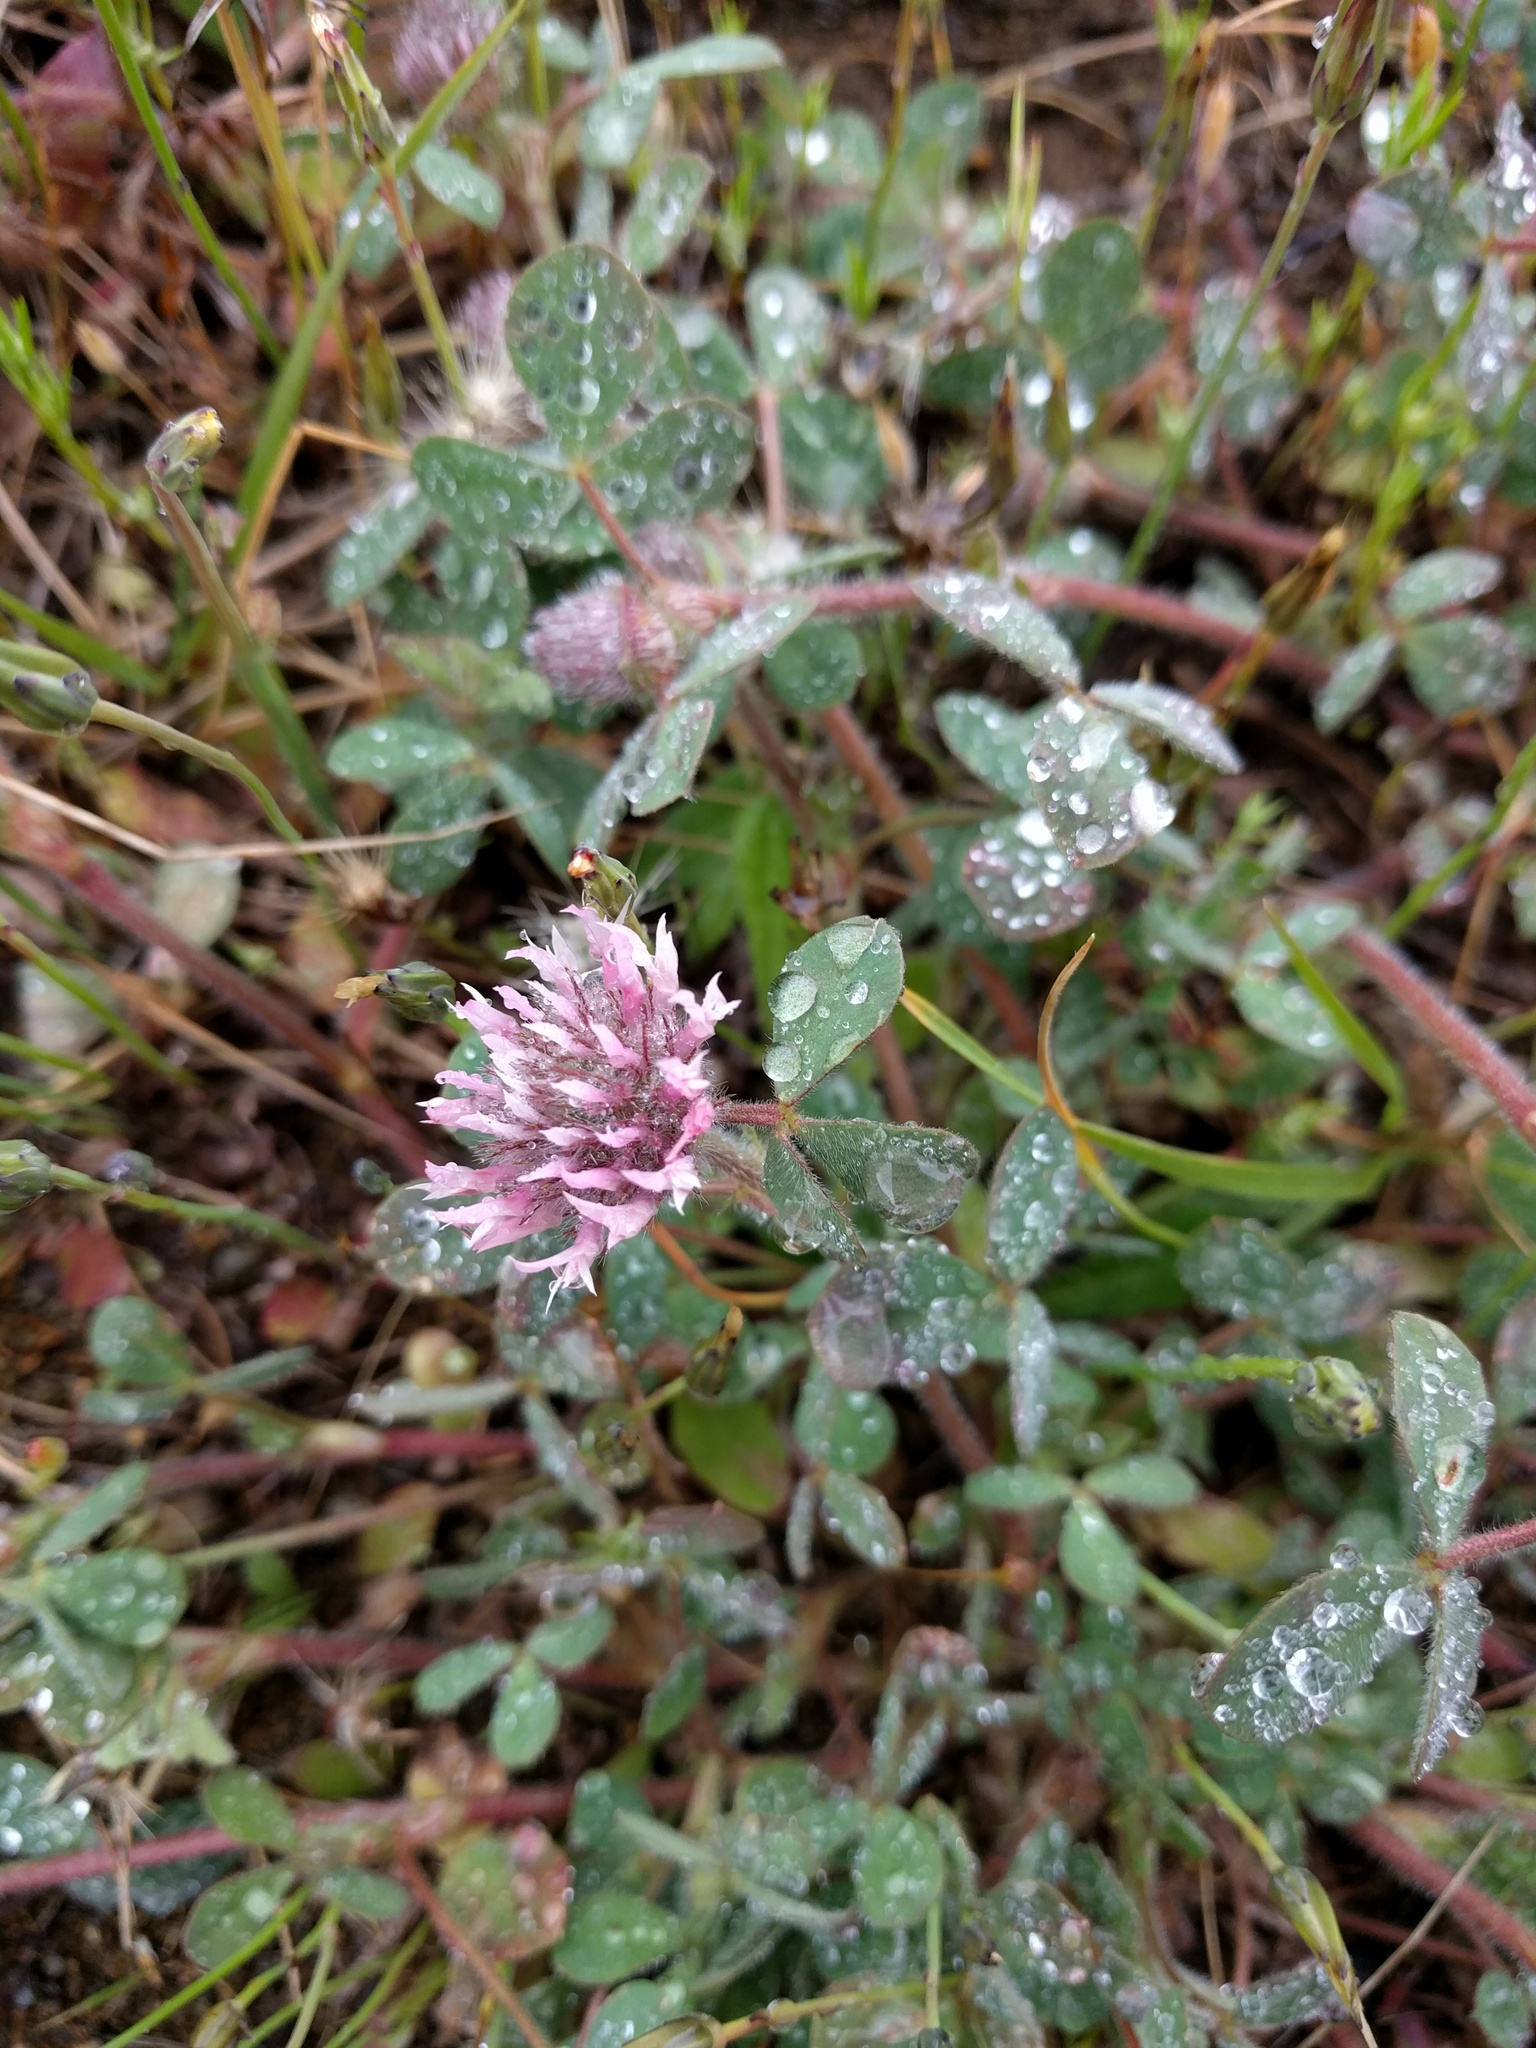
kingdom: Plantae
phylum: Tracheophyta
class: Magnoliopsida
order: Fabales
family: Fabaceae
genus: Trifolium
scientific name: Trifolium hirtum
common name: Rose clover
